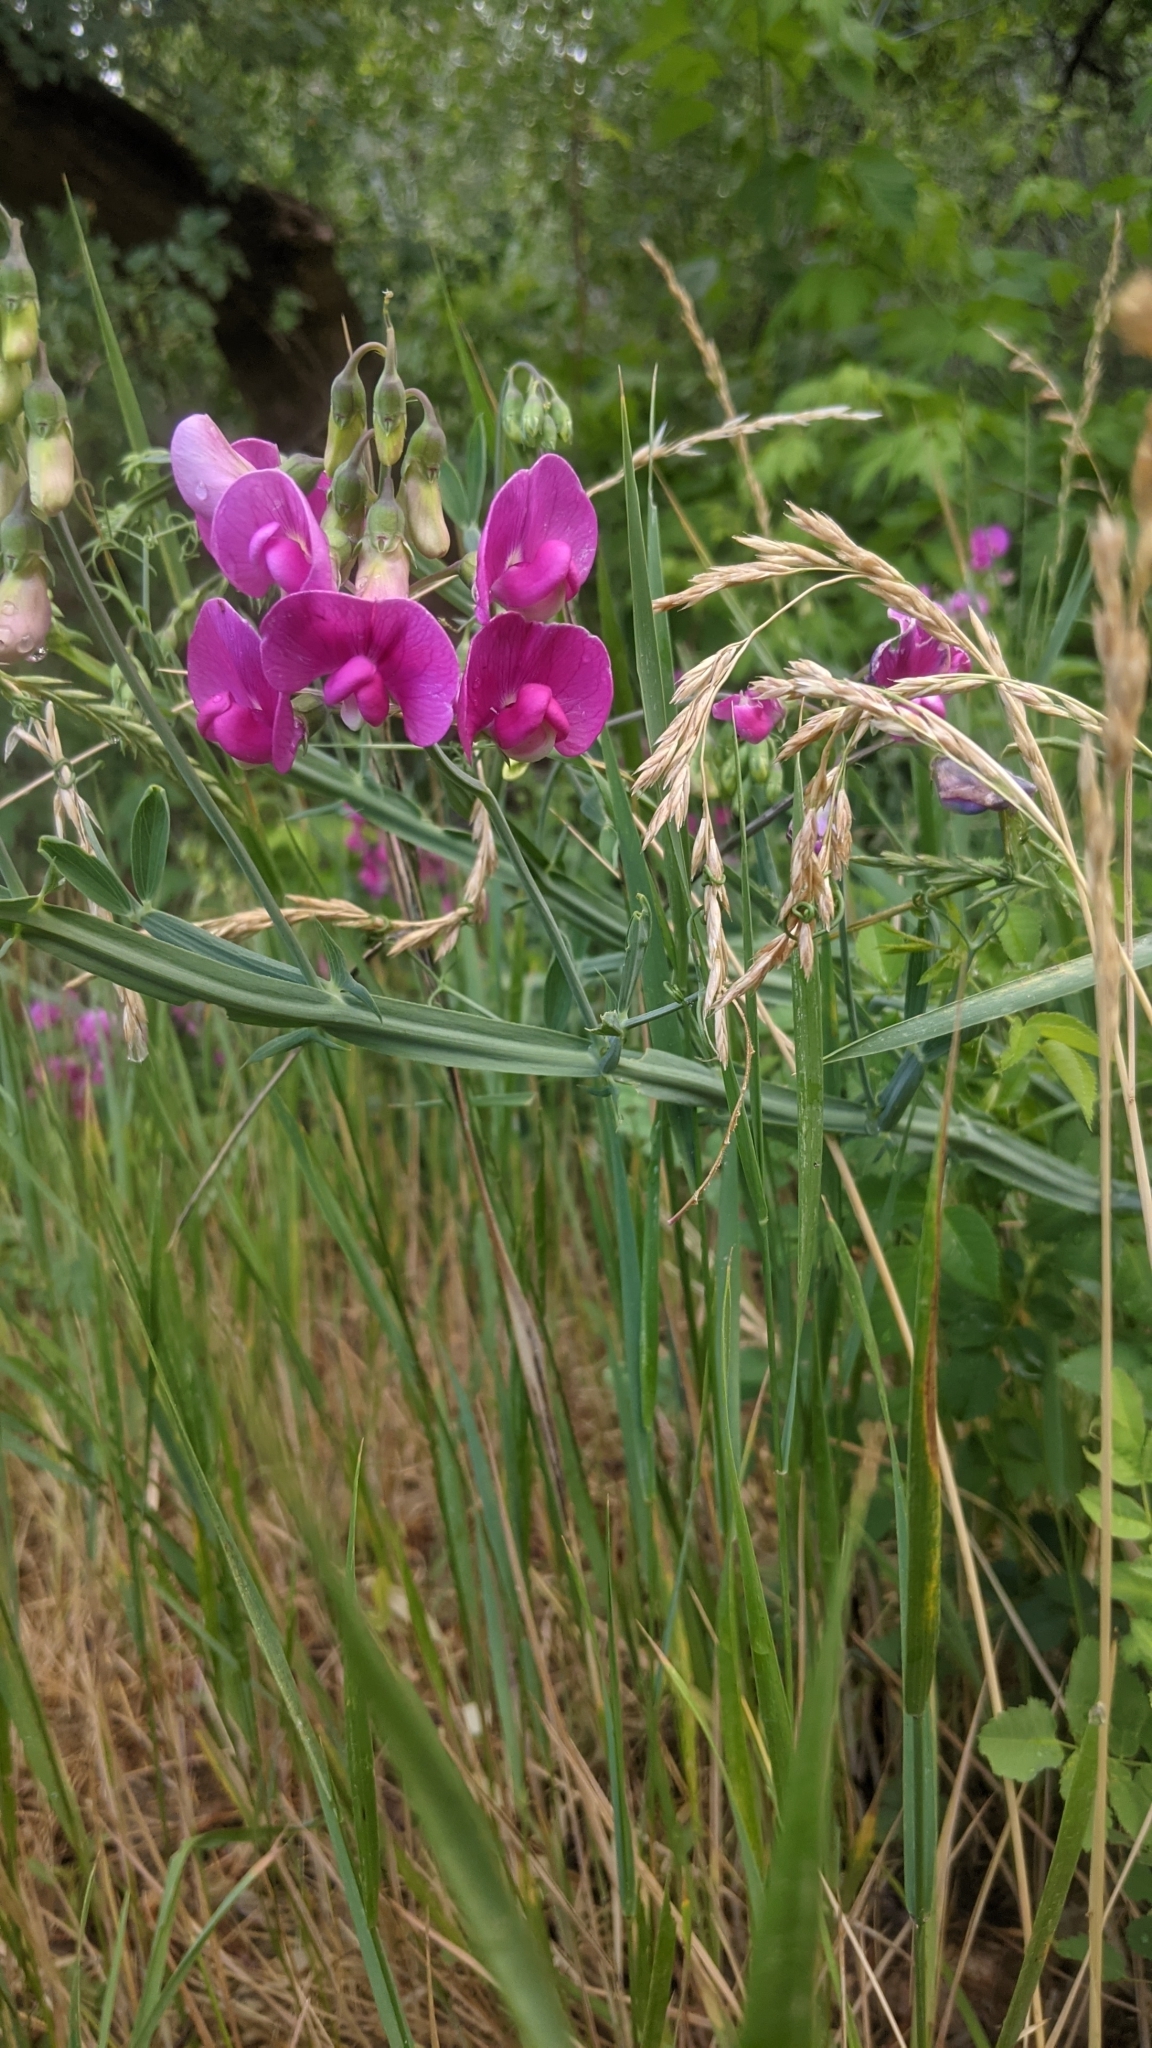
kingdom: Plantae
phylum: Tracheophyta
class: Magnoliopsida
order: Fabales
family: Fabaceae
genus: Lathyrus
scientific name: Lathyrus latifolius
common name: Perennial pea
